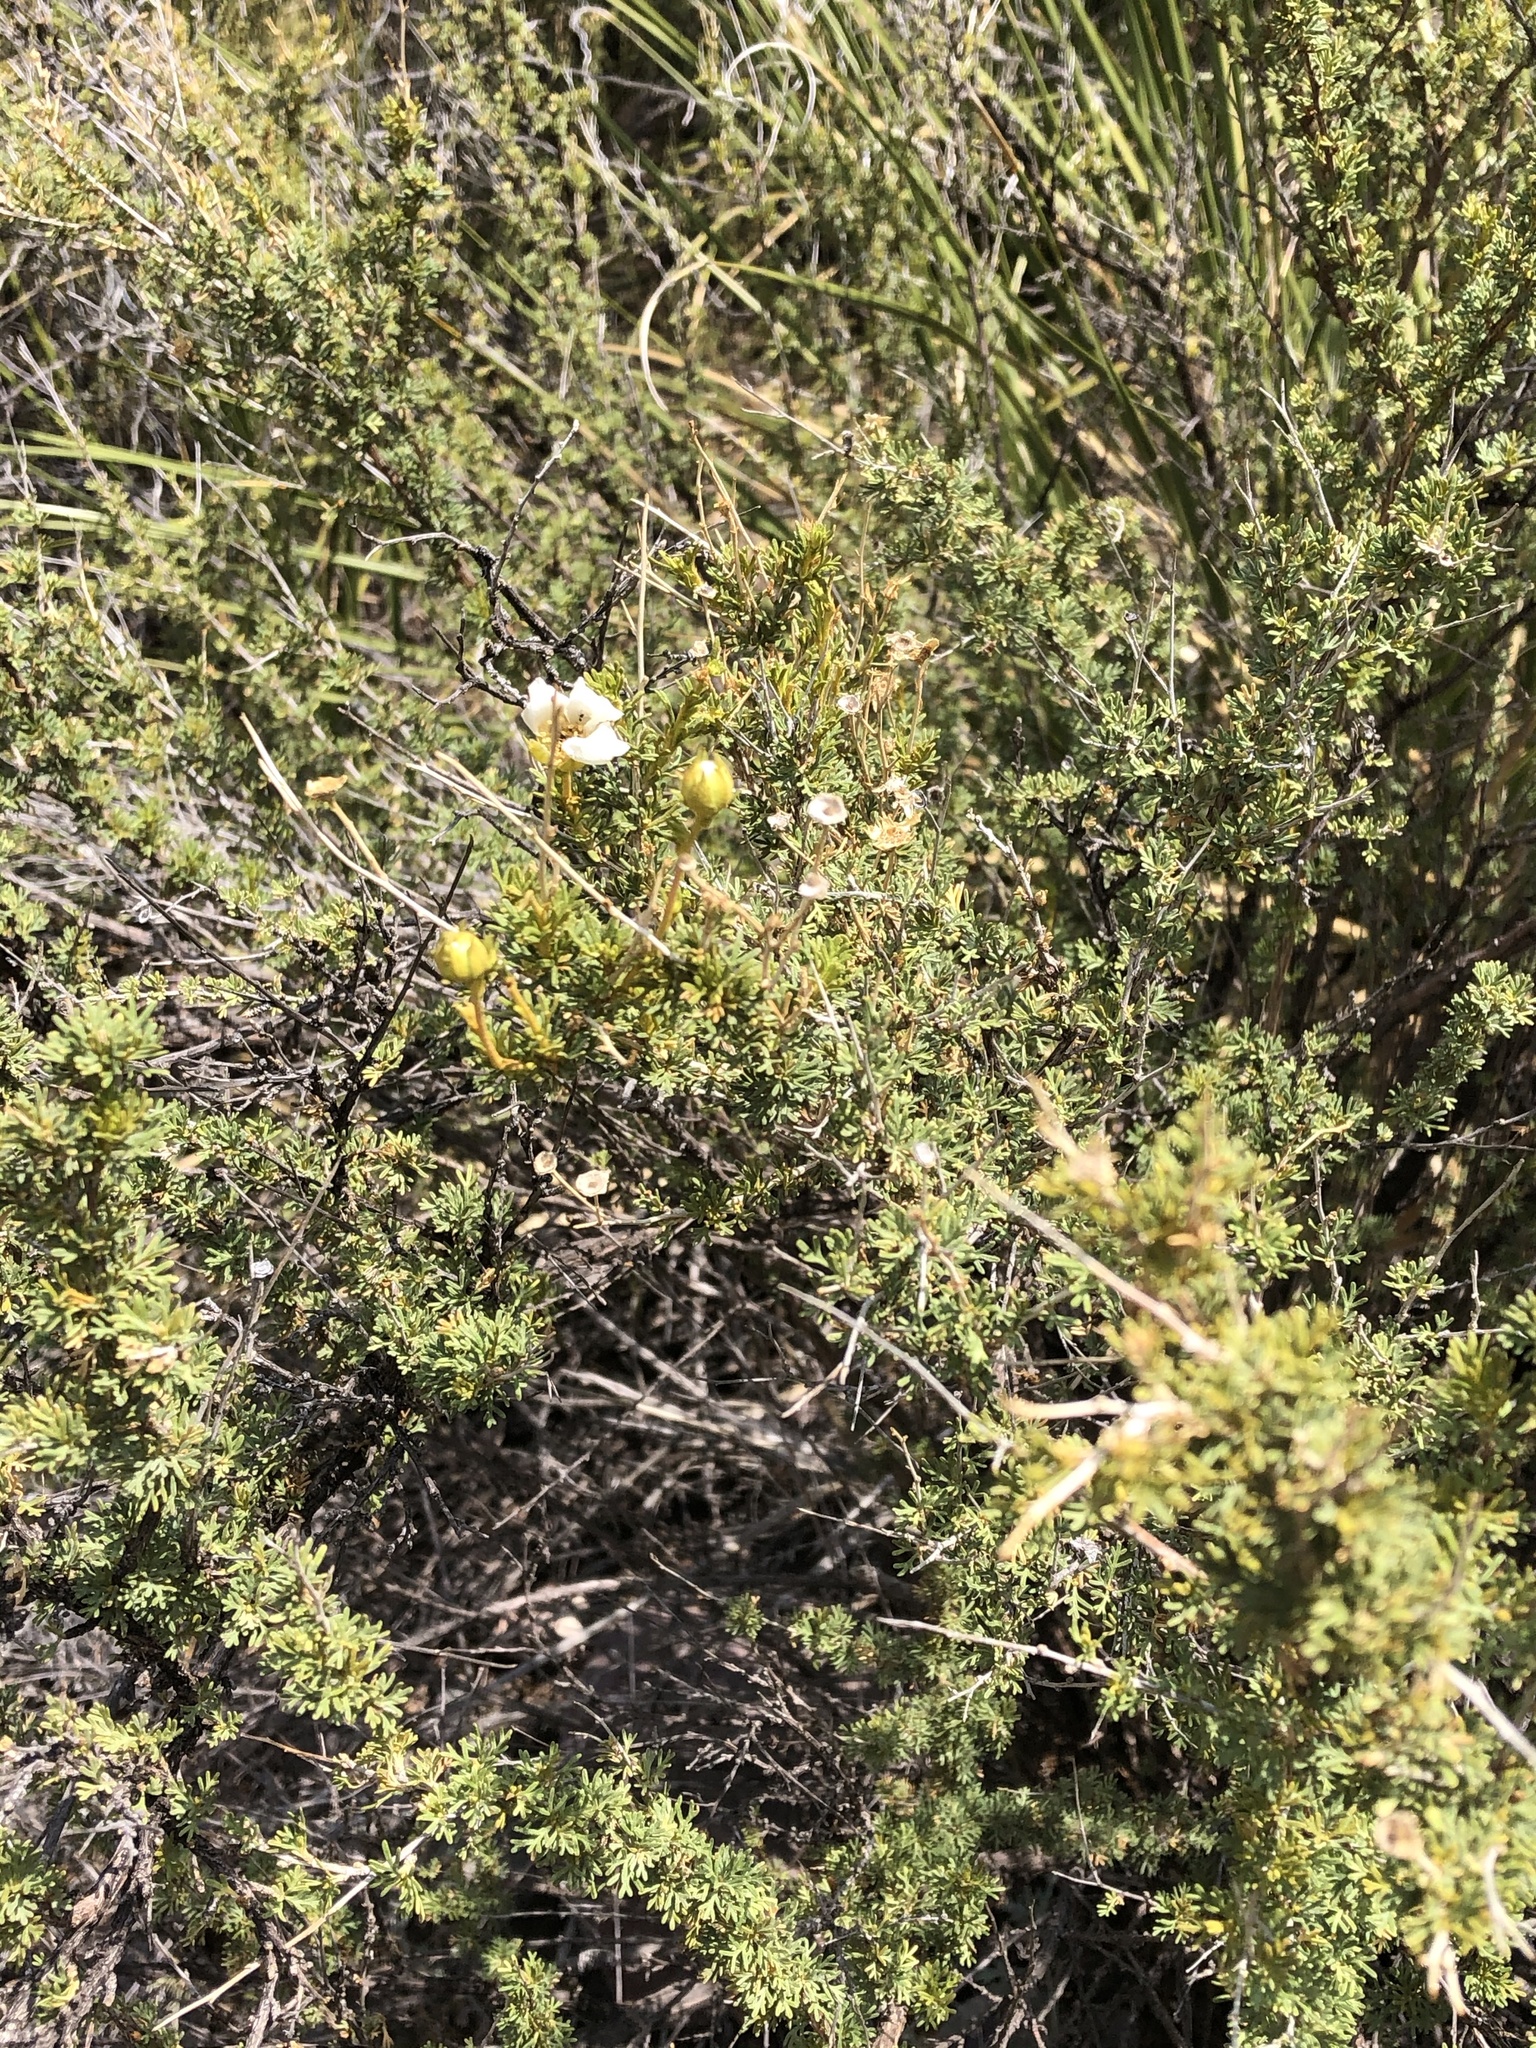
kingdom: Plantae
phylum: Tracheophyta
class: Magnoliopsida
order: Rosales
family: Rosaceae
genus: Fallugia
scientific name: Fallugia paradoxa
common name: Apache-plume
